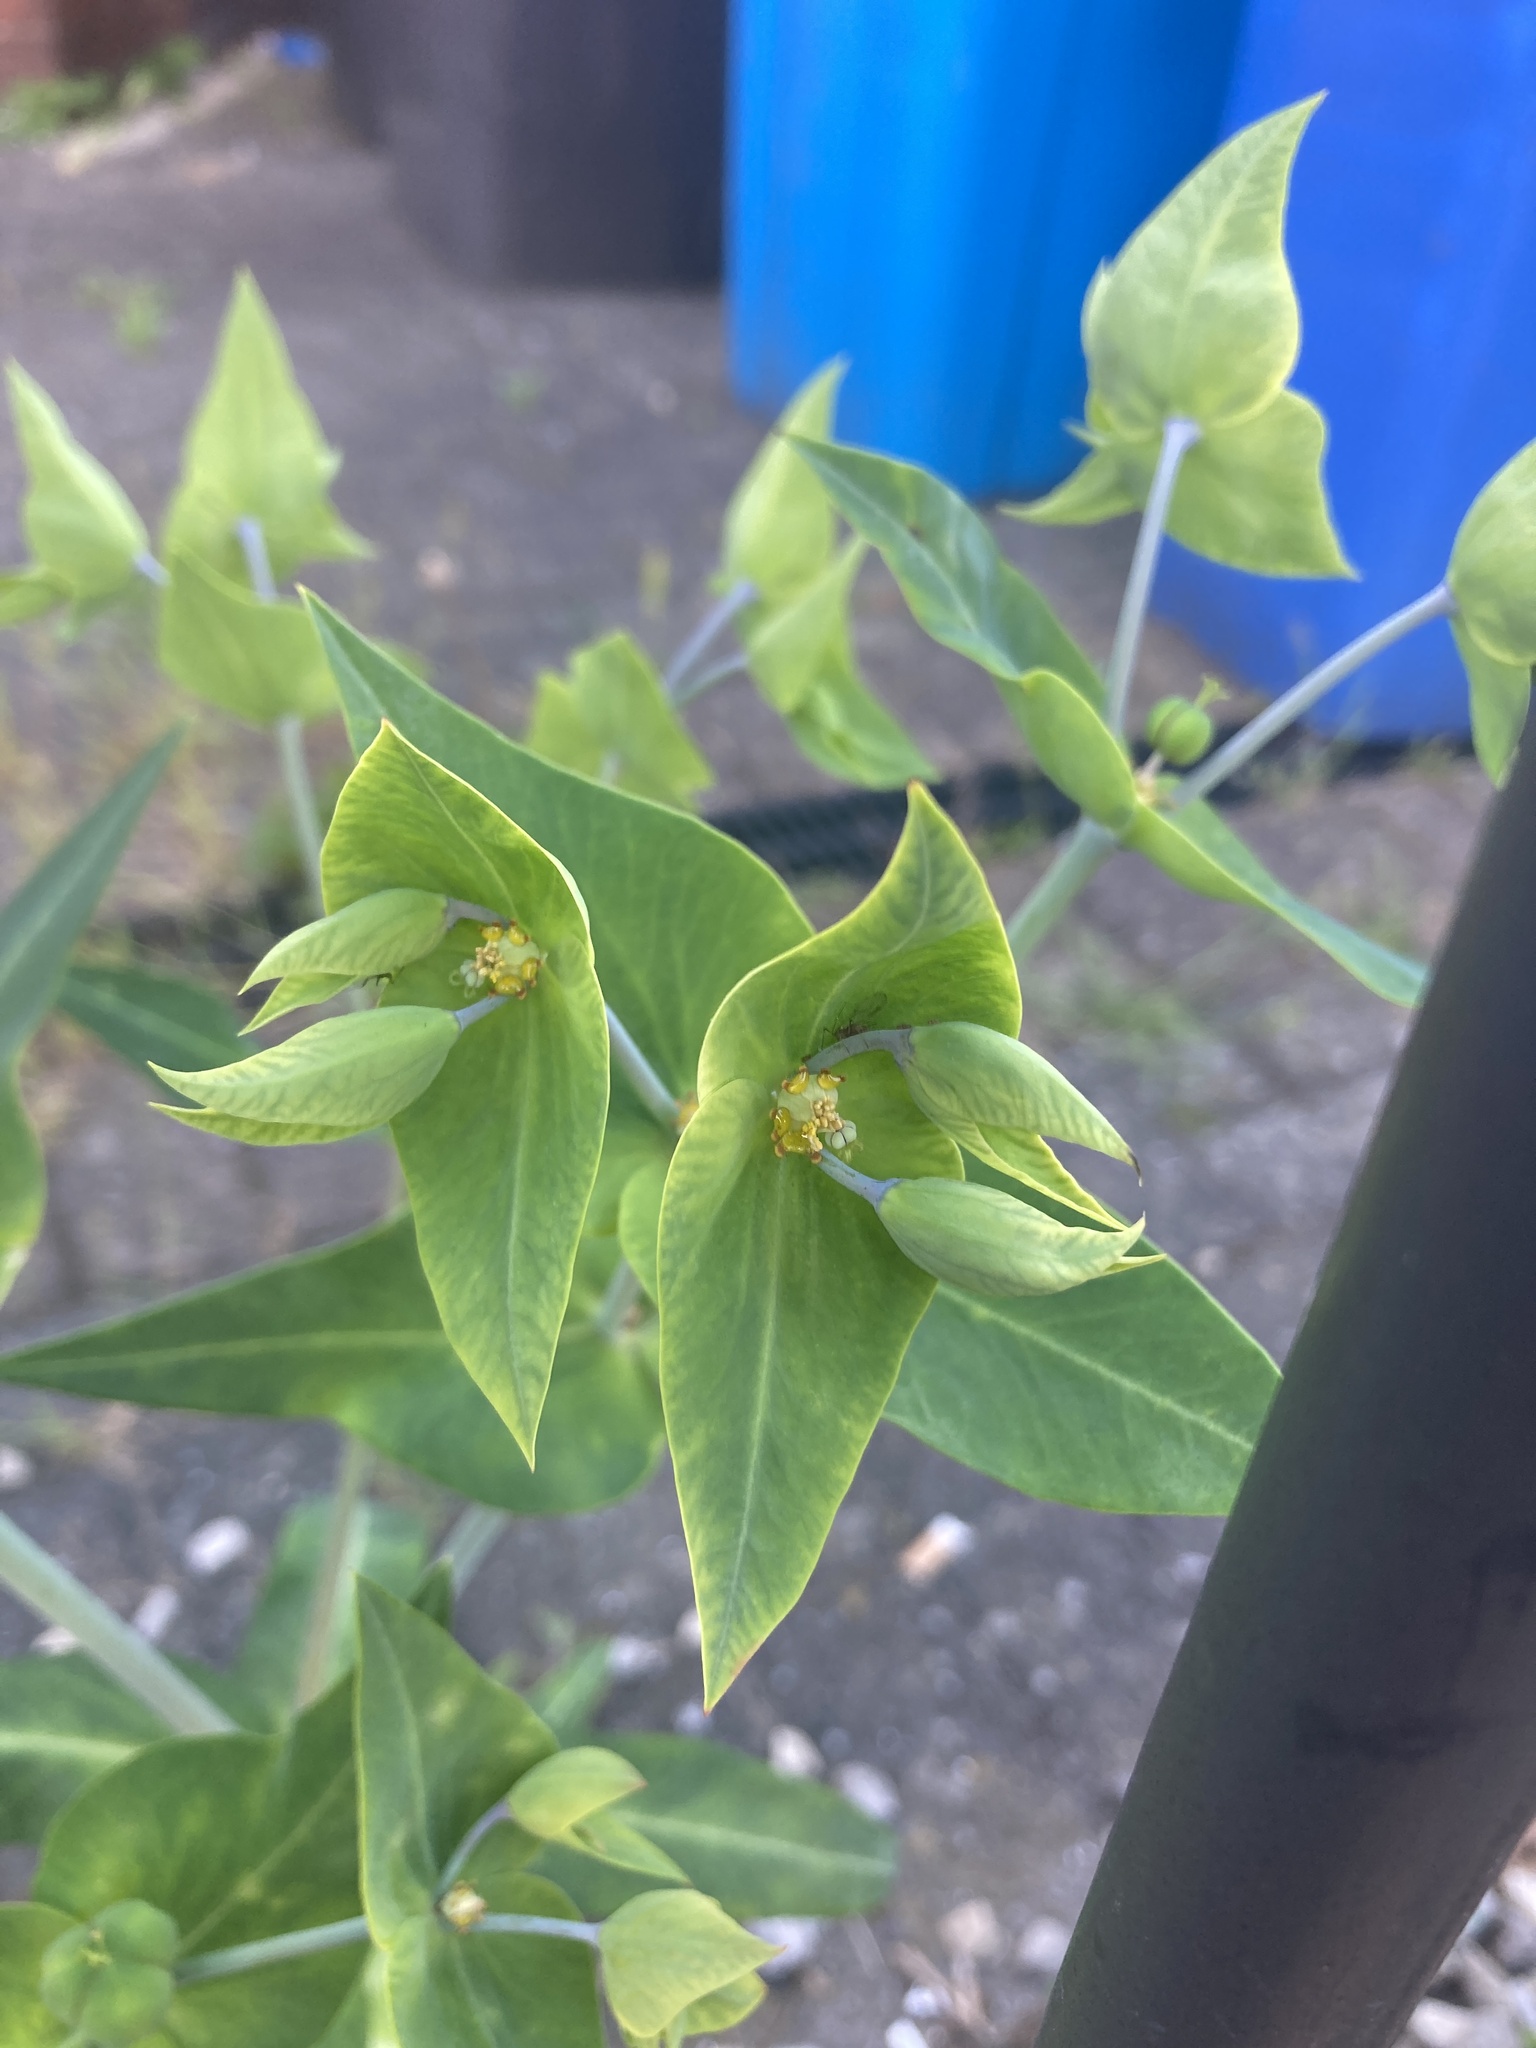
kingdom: Plantae
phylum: Tracheophyta
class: Magnoliopsida
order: Malpighiales
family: Euphorbiaceae
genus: Euphorbia
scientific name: Euphorbia lathyris
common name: Caper spurge
